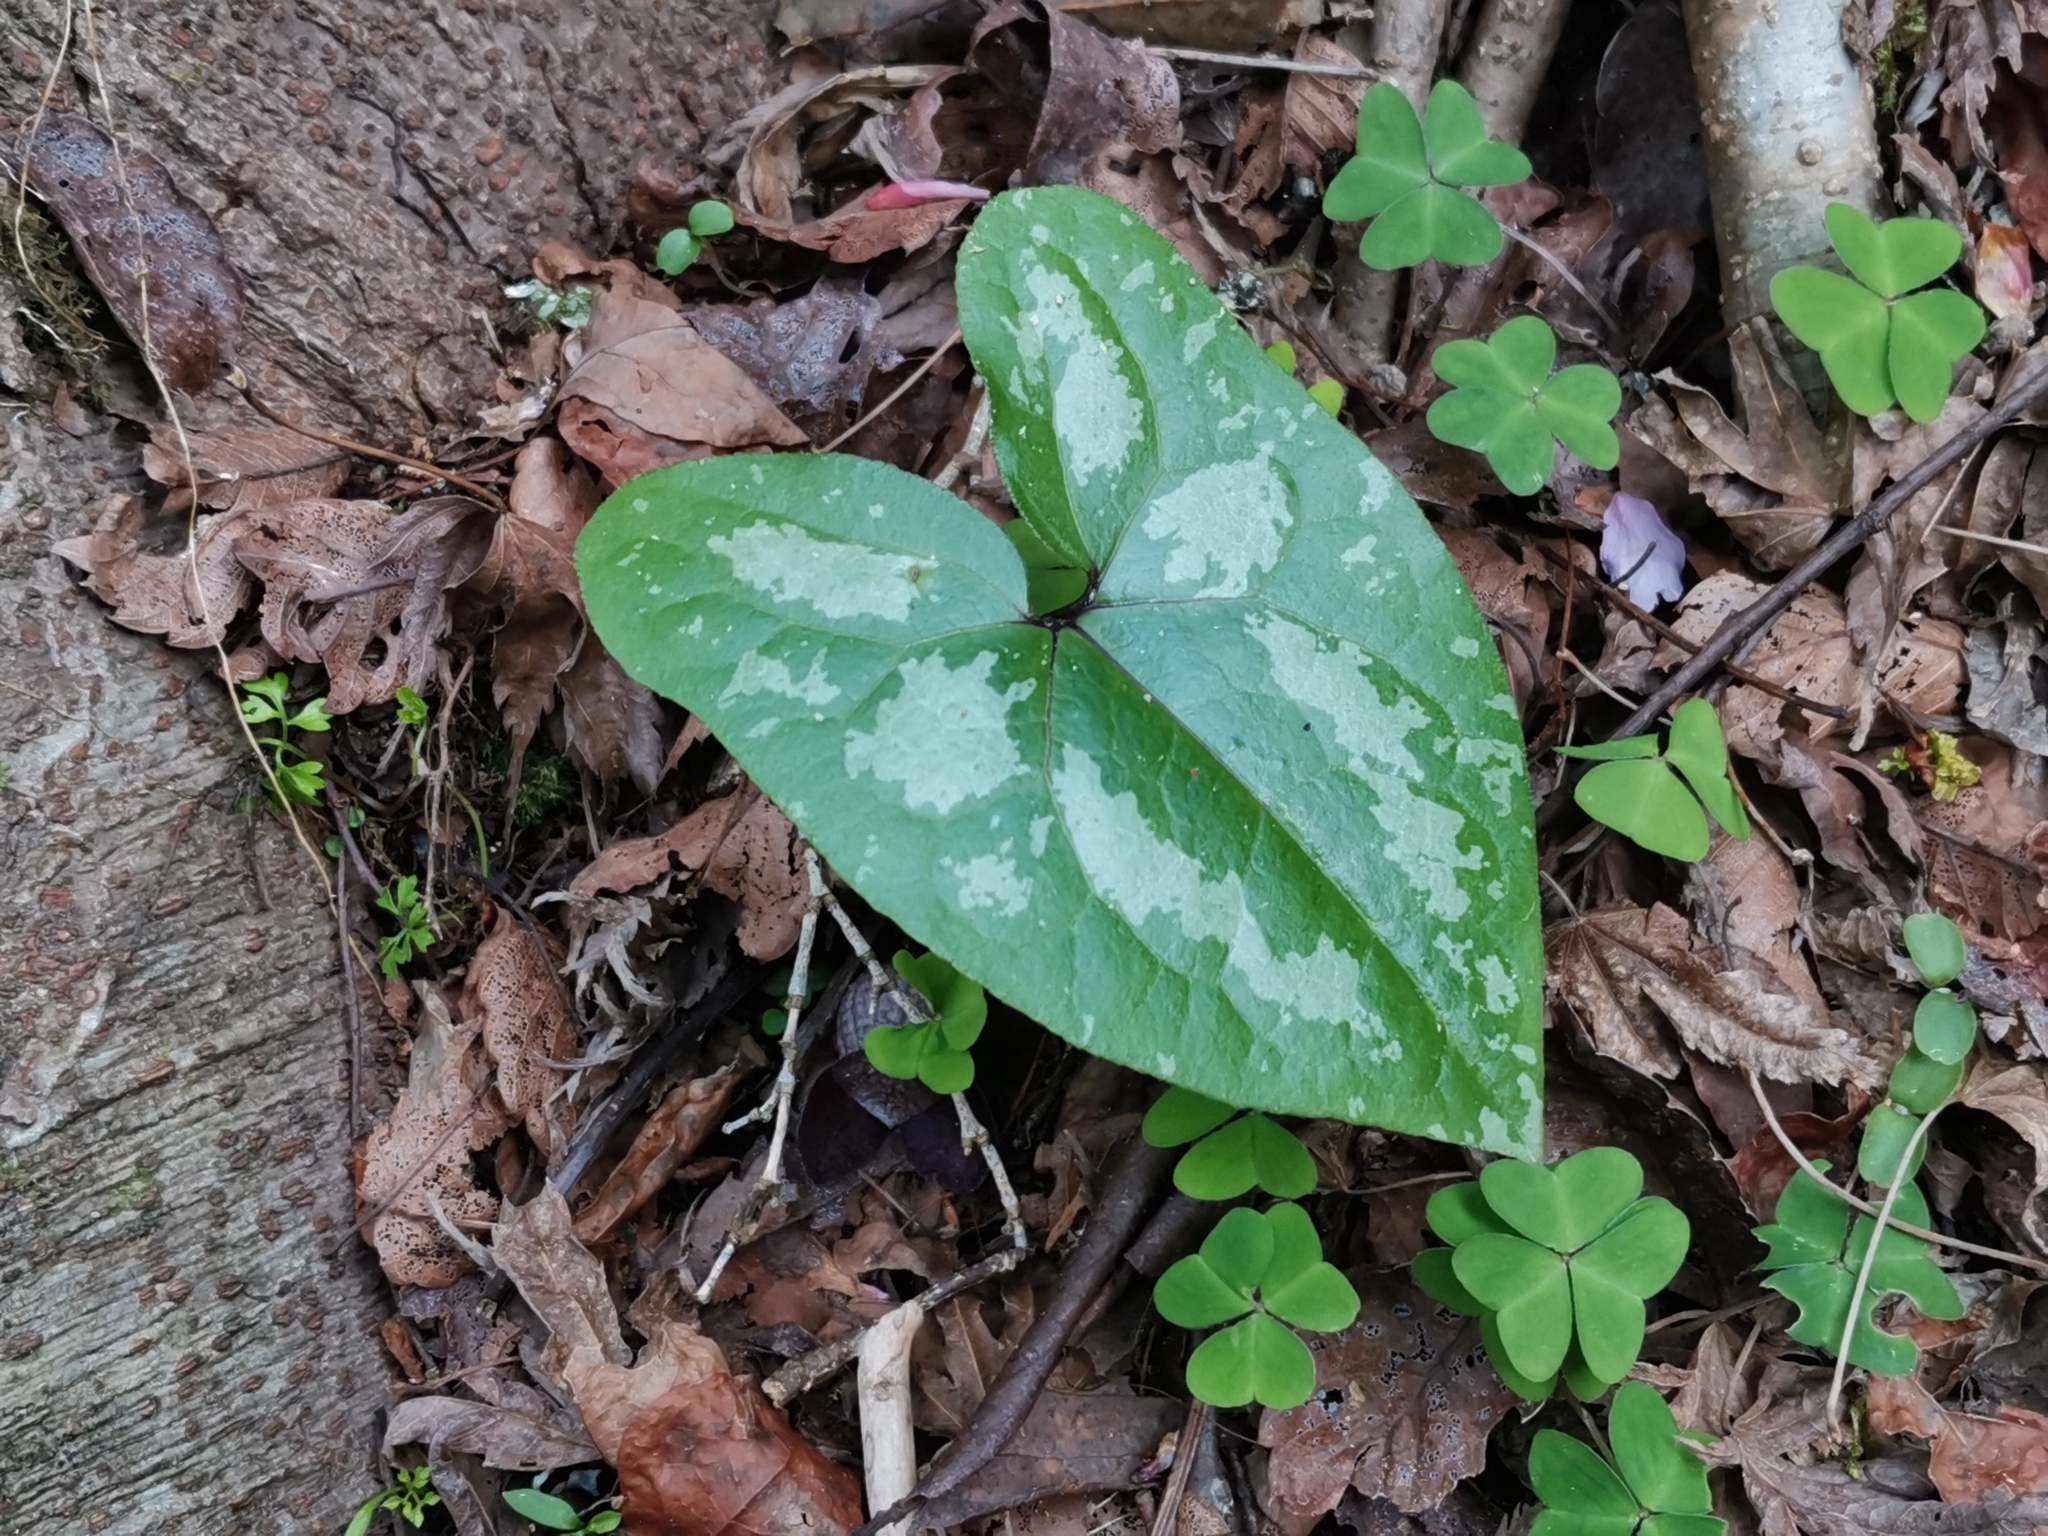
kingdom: Plantae
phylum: Tracheophyta
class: Magnoliopsida
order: Piperales
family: Aristolochiaceae
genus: Asarum
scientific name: Asarum blumei
